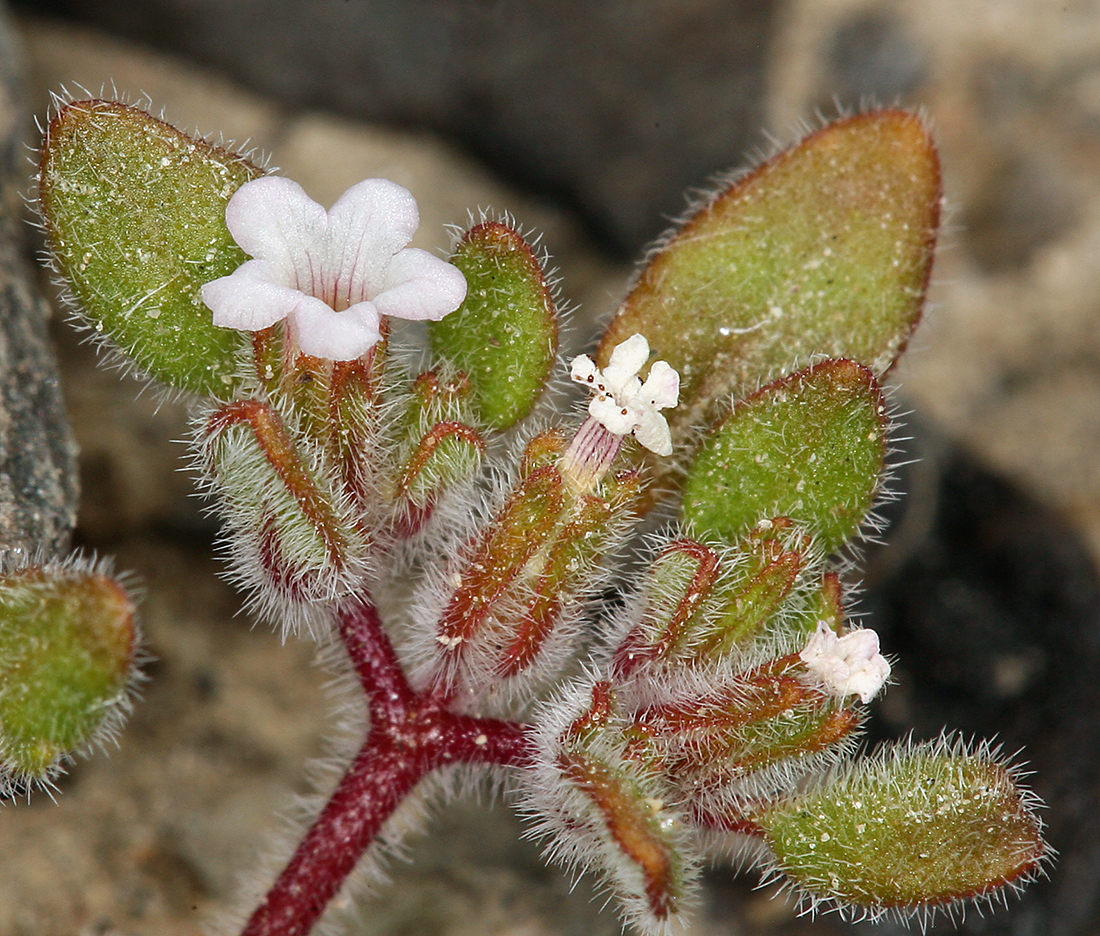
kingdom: Plantae
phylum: Tracheophyta
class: Magnoliopsida
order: Boraginales
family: Namaceae
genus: Nama
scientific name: Nama pusilla
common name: Eggleaf nama
